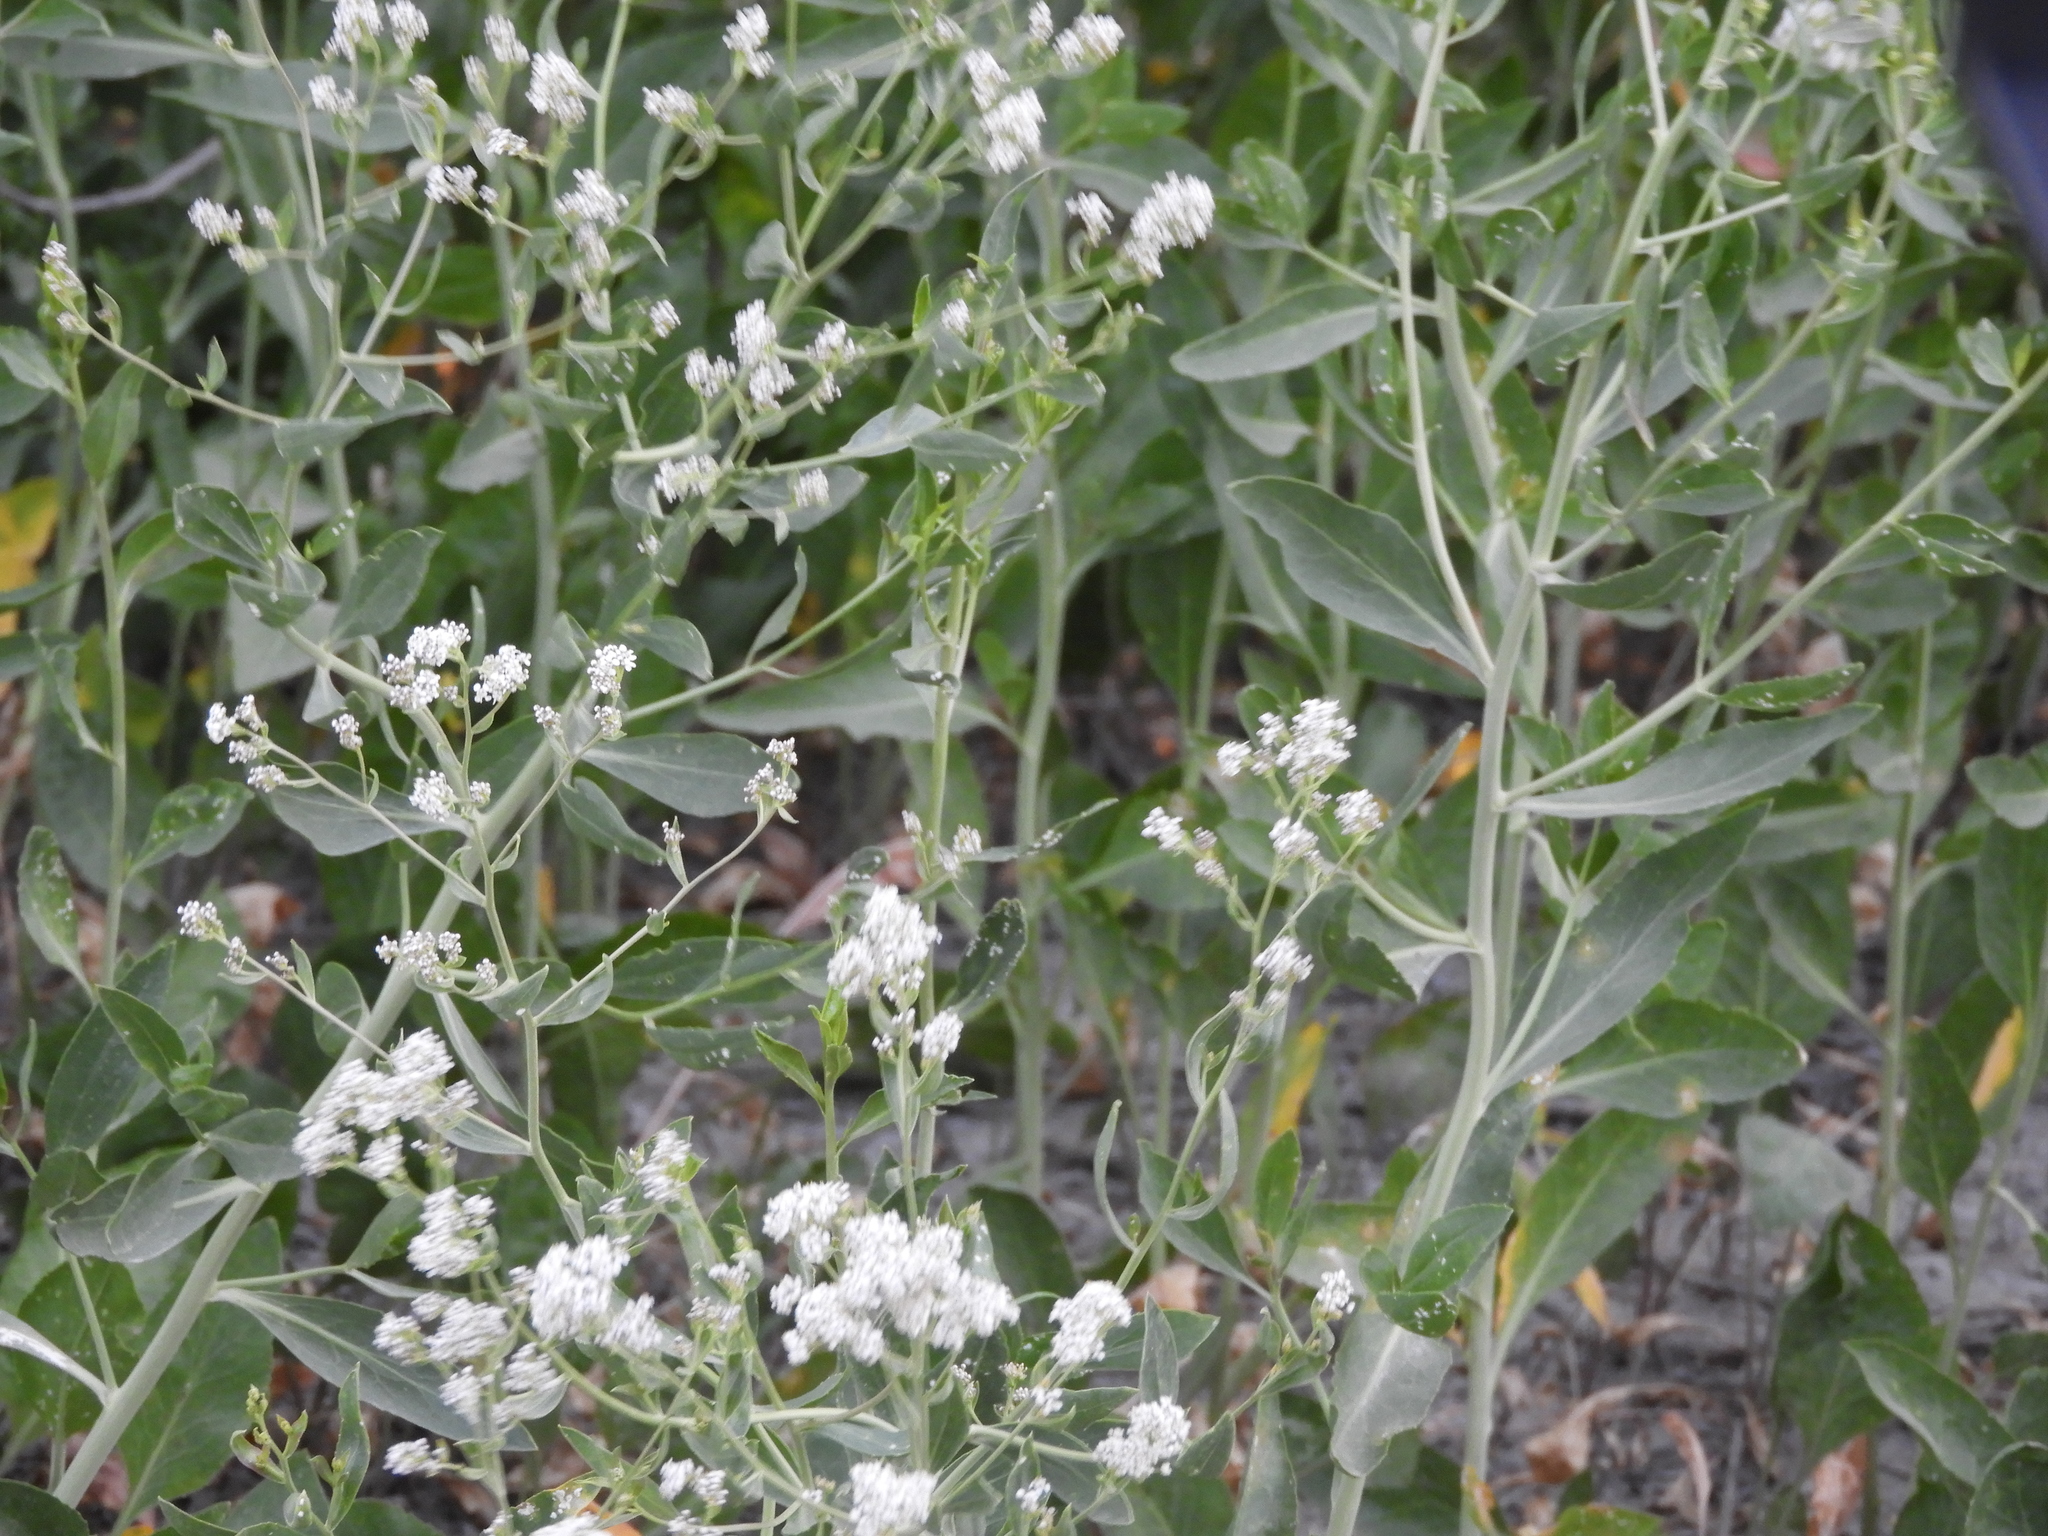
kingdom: Plantae
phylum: Tracheophyta
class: Magnoliopsida
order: Brassicales
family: Brassicaceae
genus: Lepidium
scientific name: Lepidium latifolium
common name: Dittander
